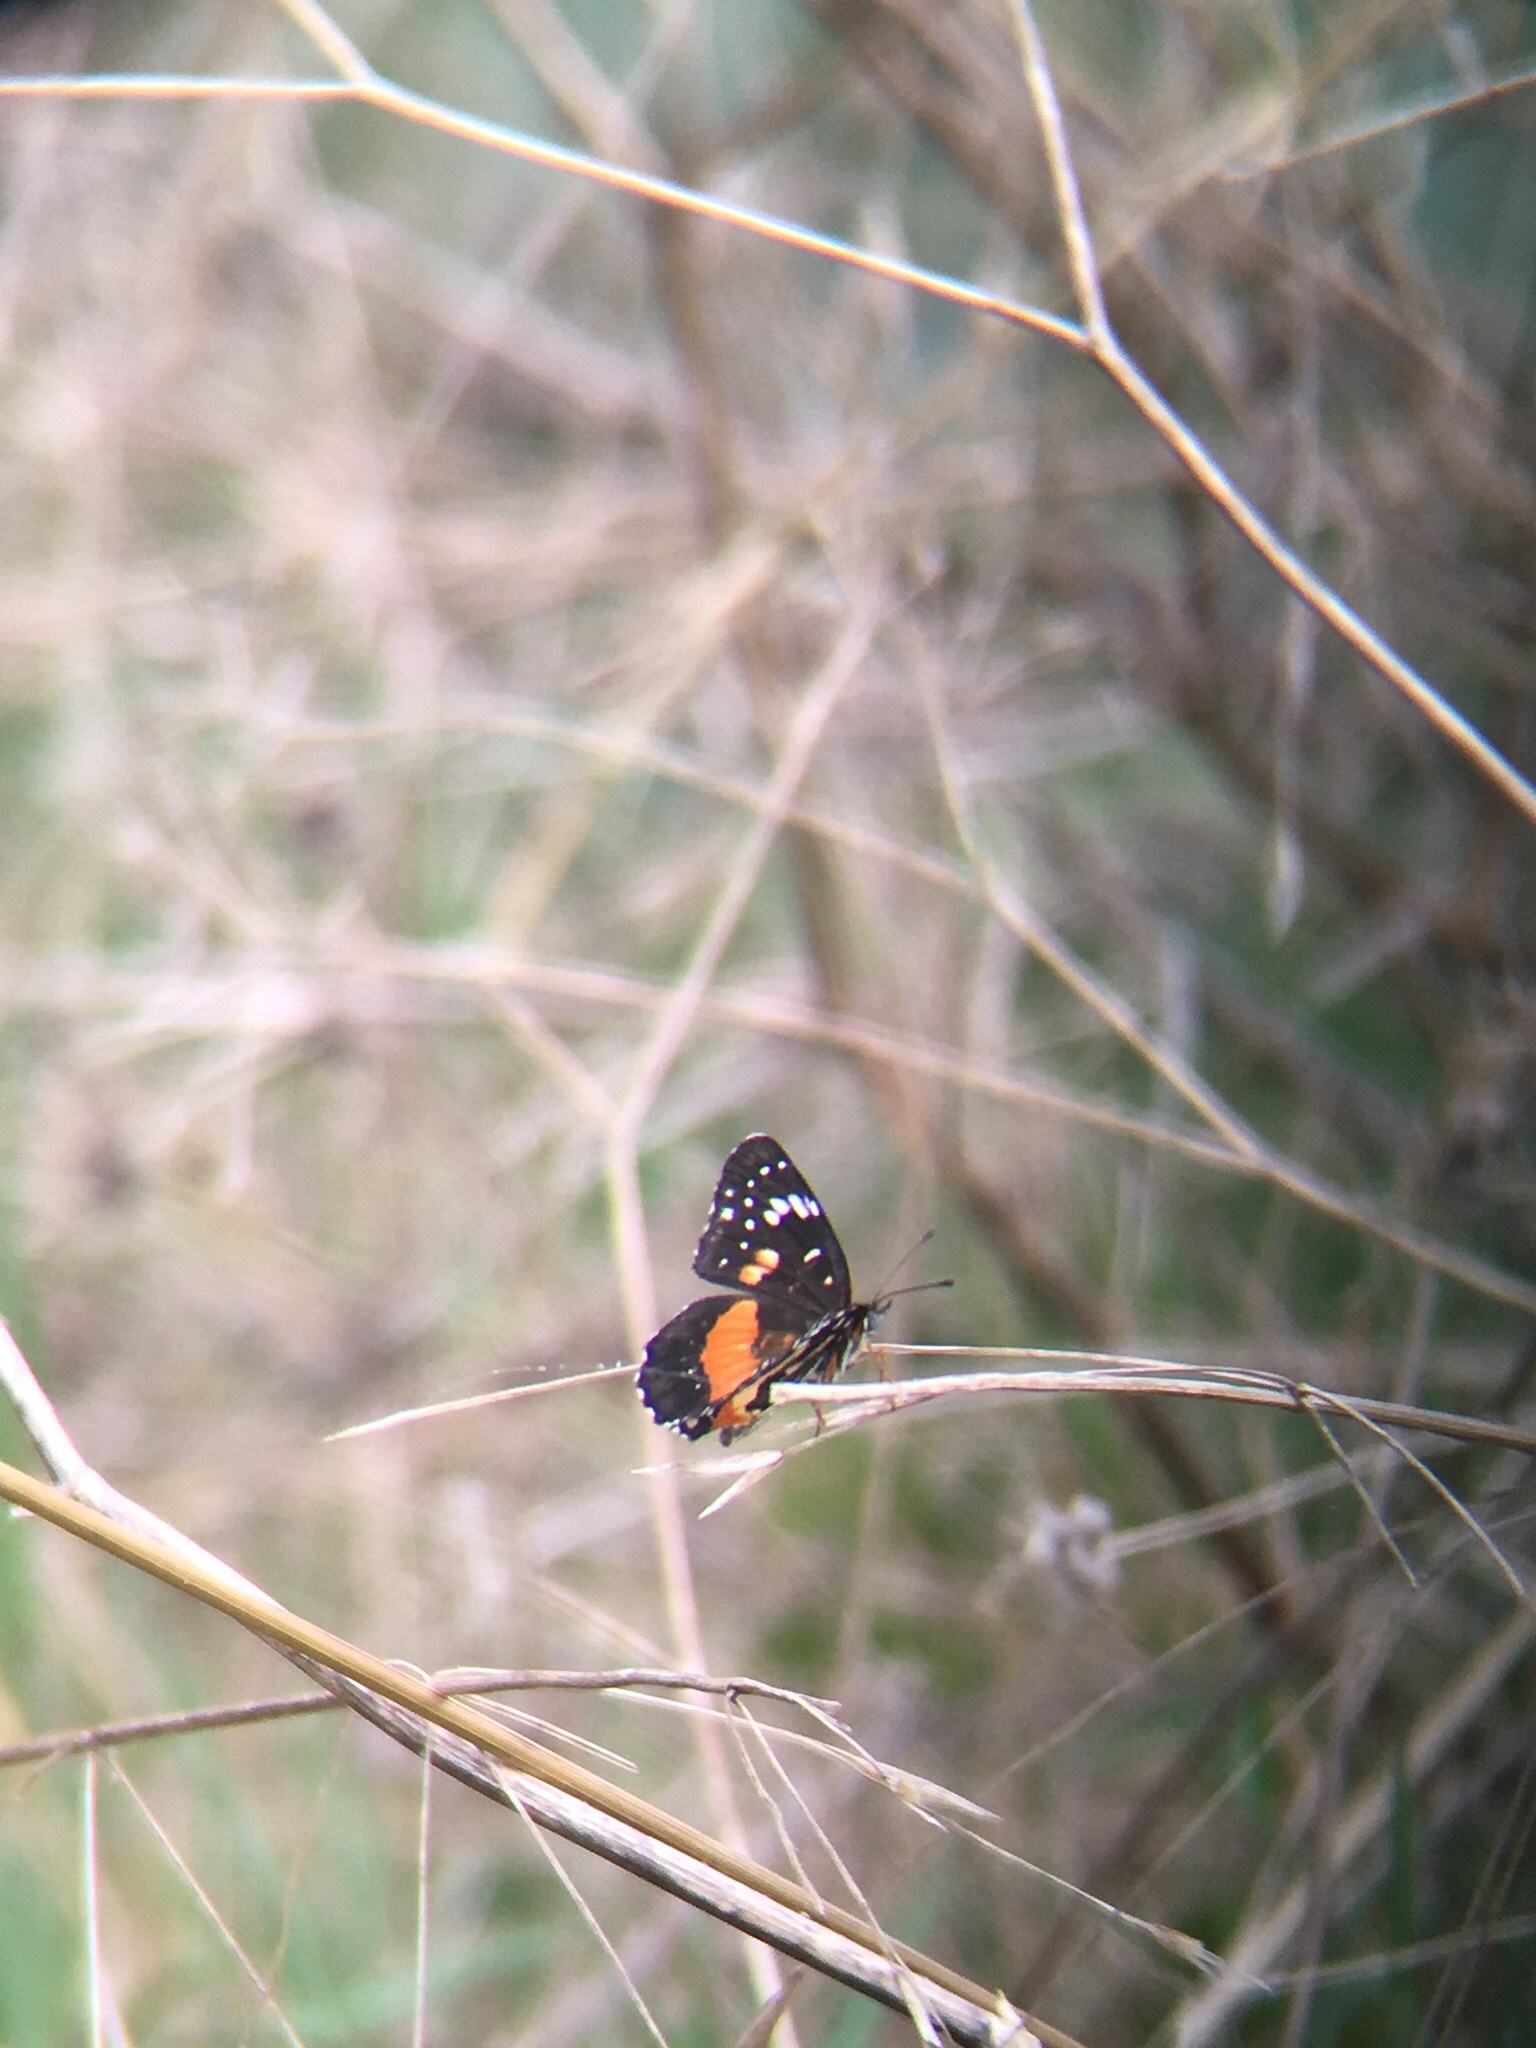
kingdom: Animalia
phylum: Arthropoda
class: Insecta
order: Lepidoptera
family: Nymphalidae
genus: Chlosyne
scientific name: Chlosyne lacinia
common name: Bordered patch
